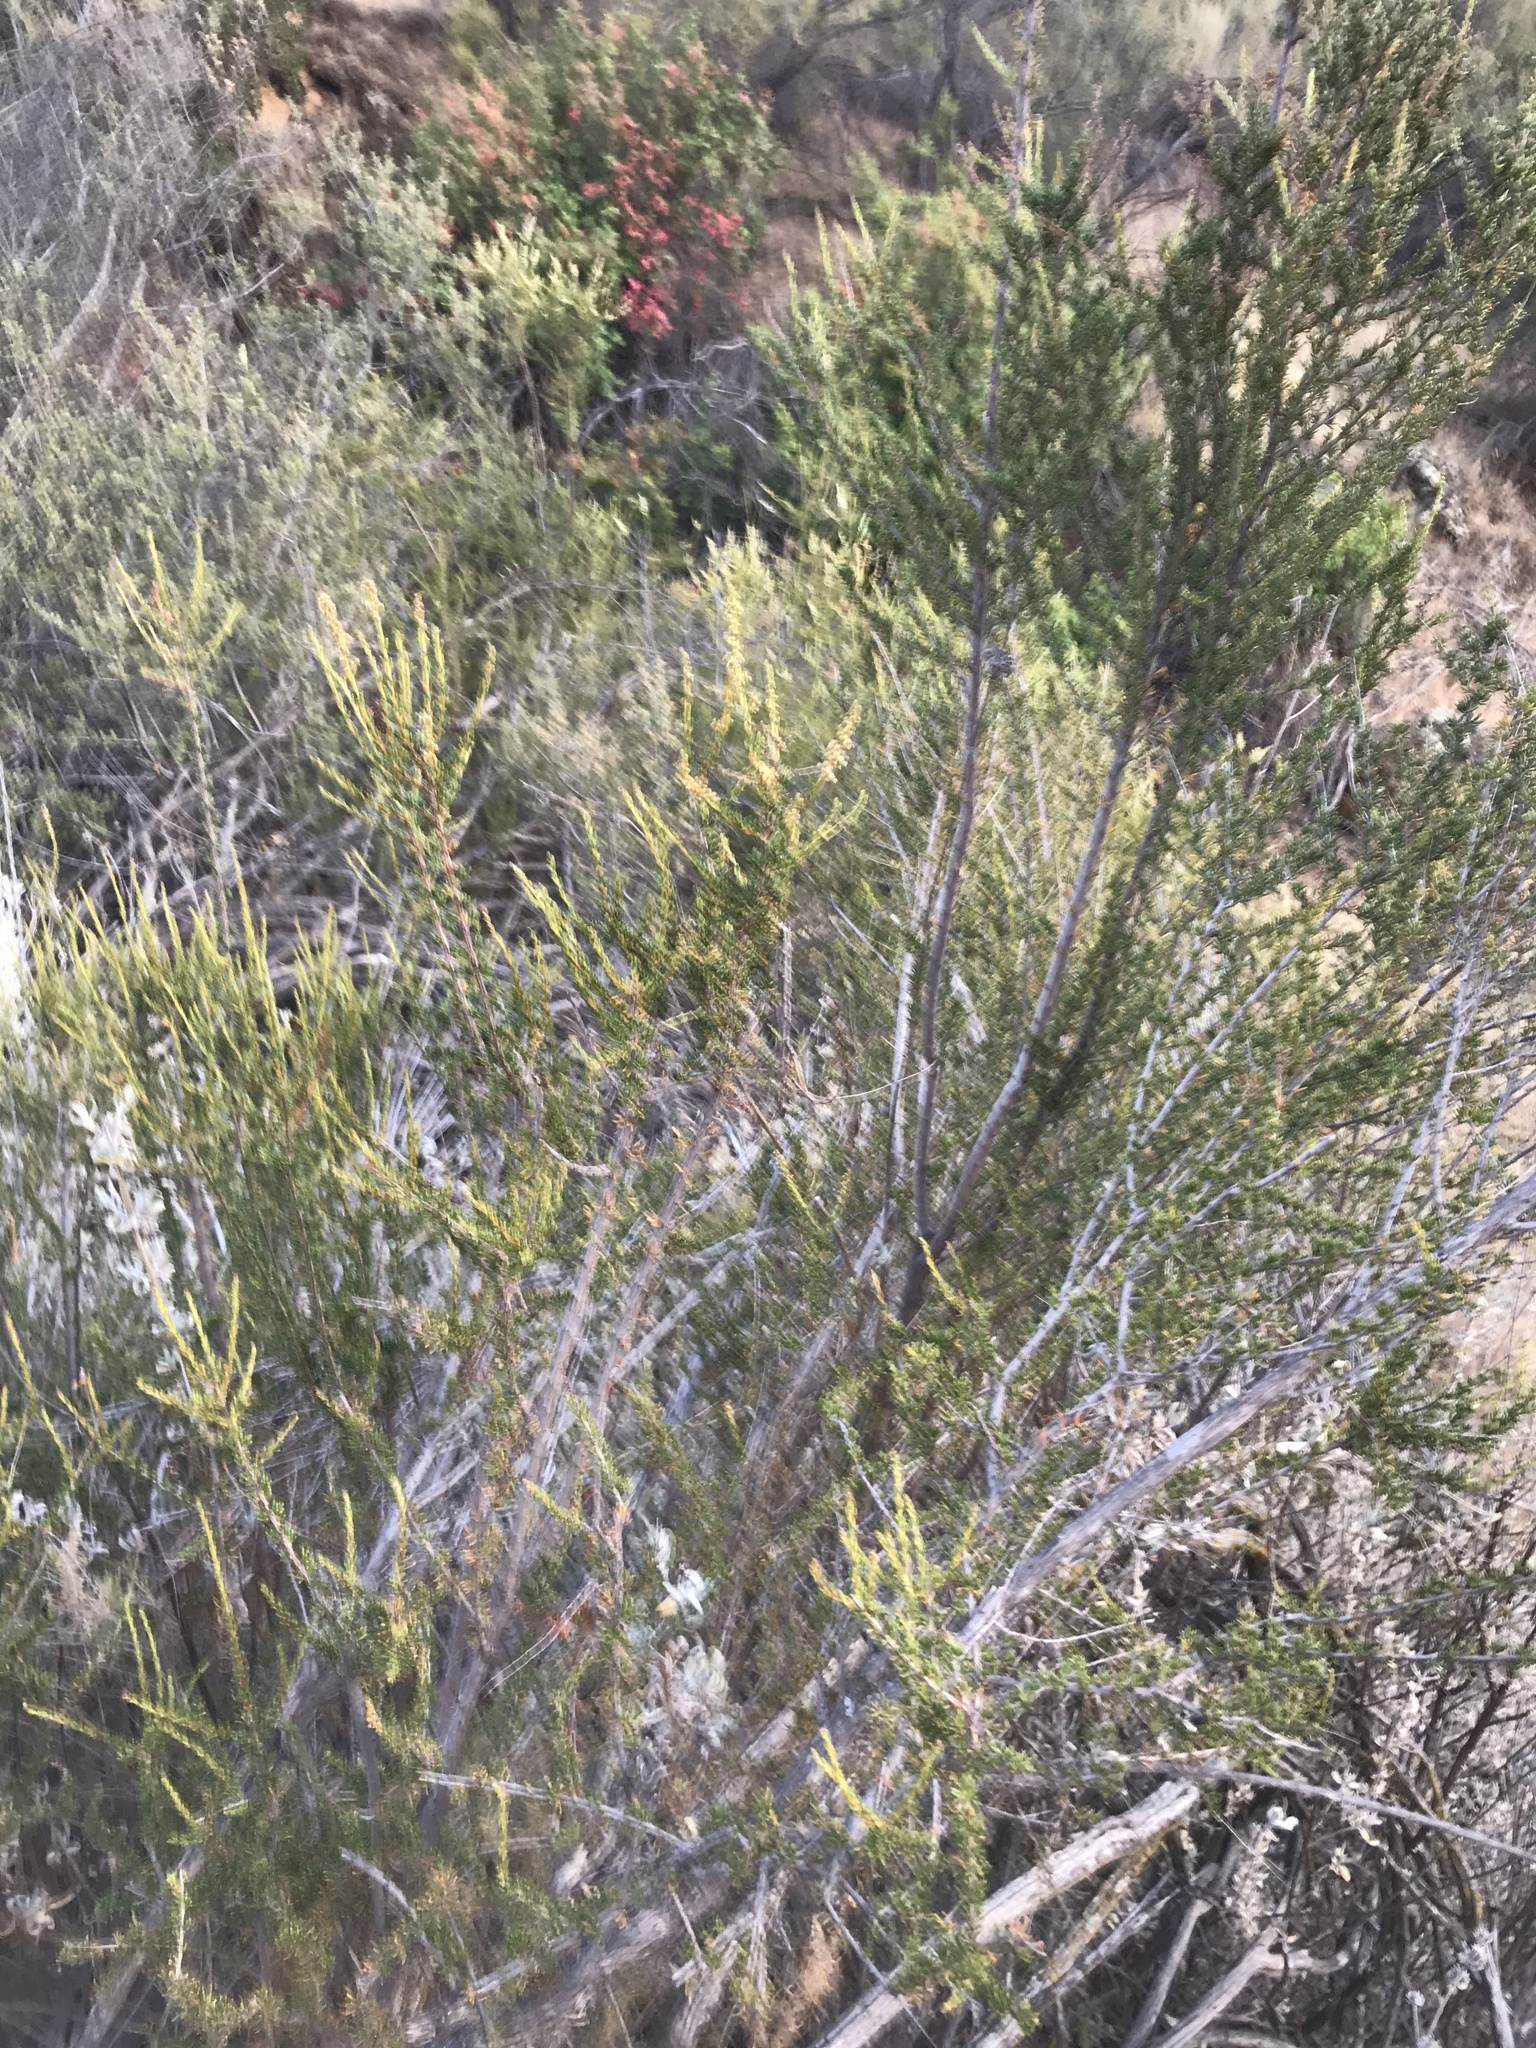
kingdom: Plantae
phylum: Tracheophyta
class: Magnoliopsida
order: Rosales
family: Rosaceae
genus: Adenostoma
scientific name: Adenostoma fasciculatum
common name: Chamise
